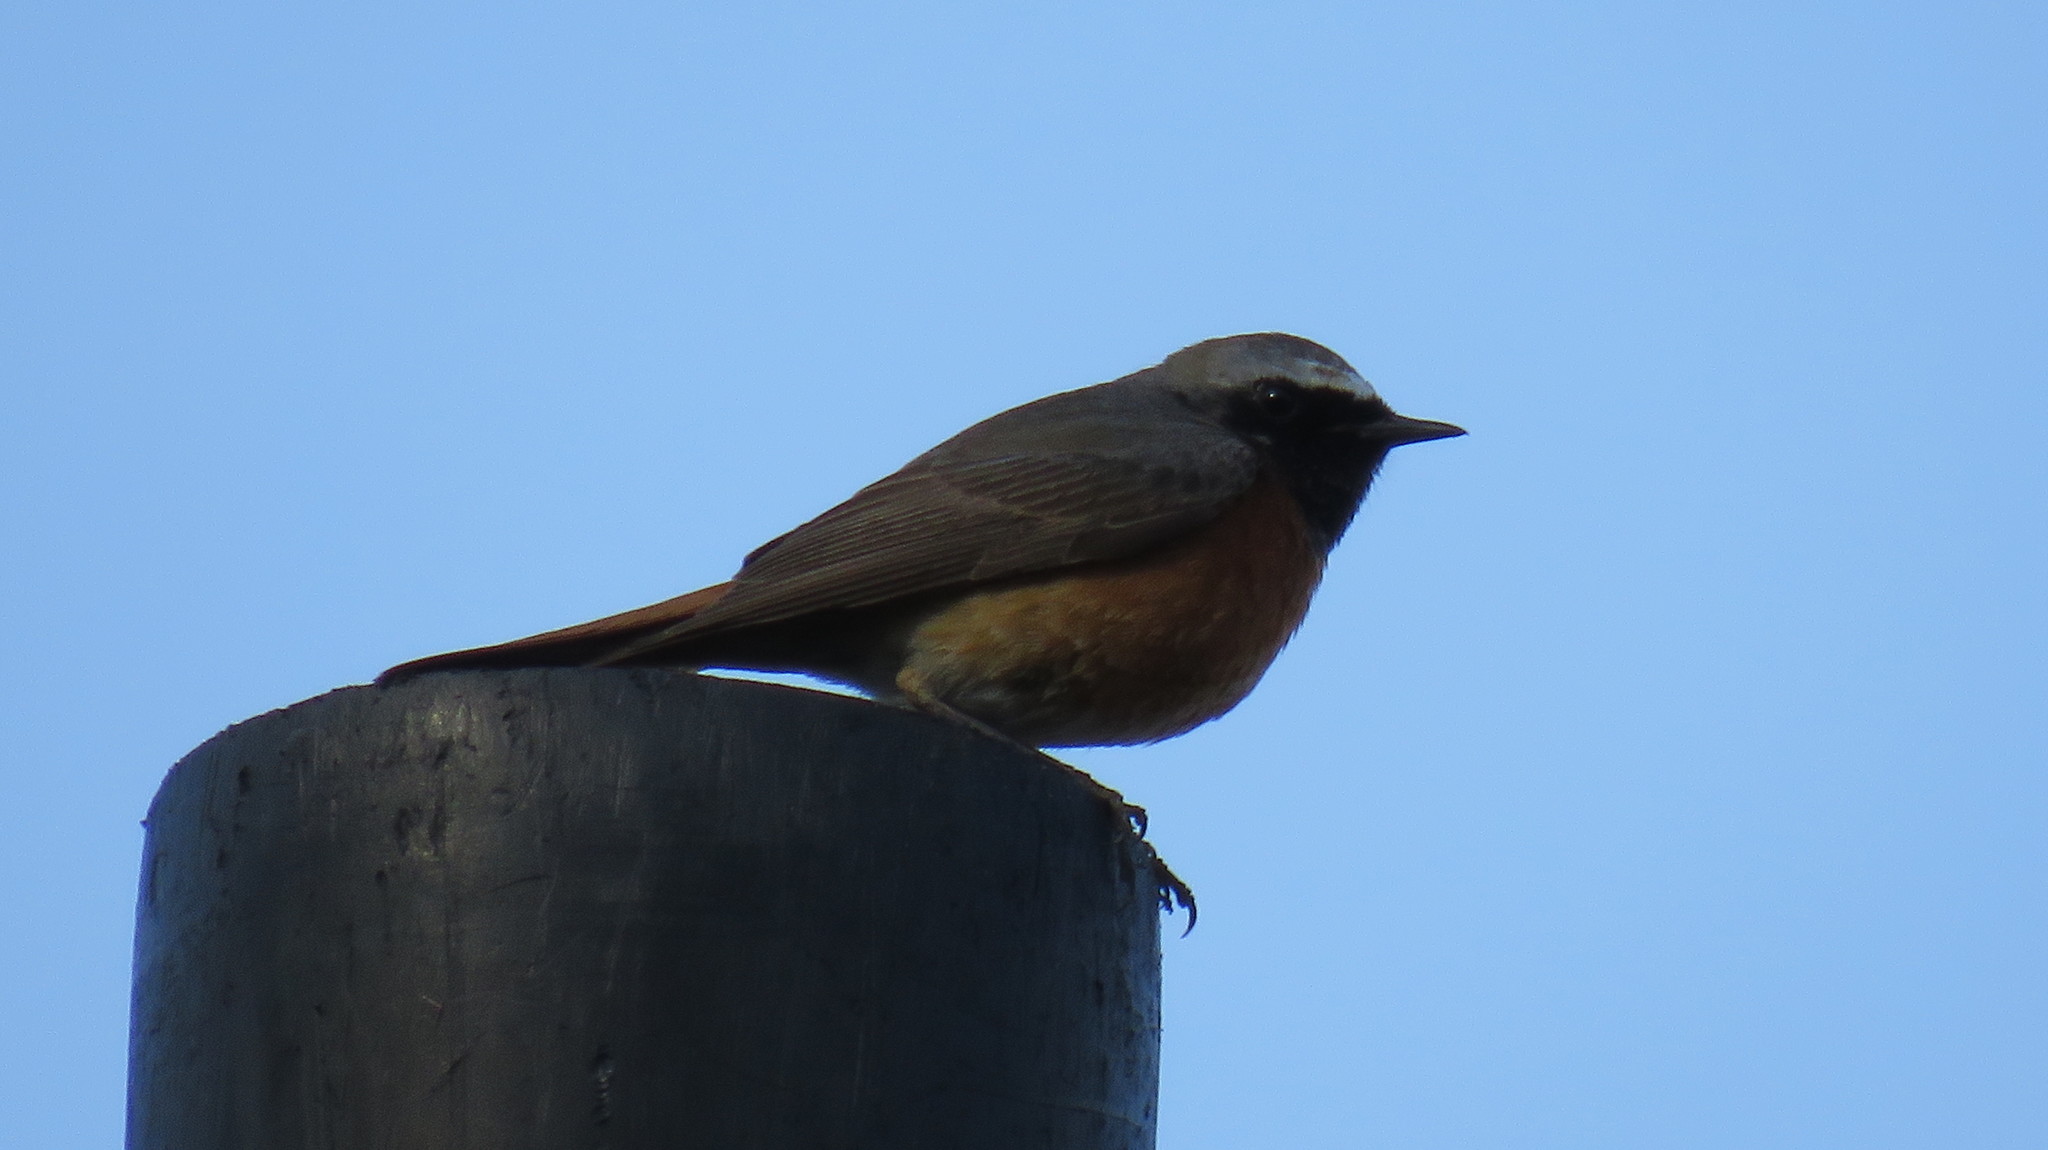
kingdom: Animalia
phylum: Chordata
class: Aves
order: Passeriformes
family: Muscicapidae
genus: Phoenicurus
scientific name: Phoenicurus phoenicurus
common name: Common redstart
